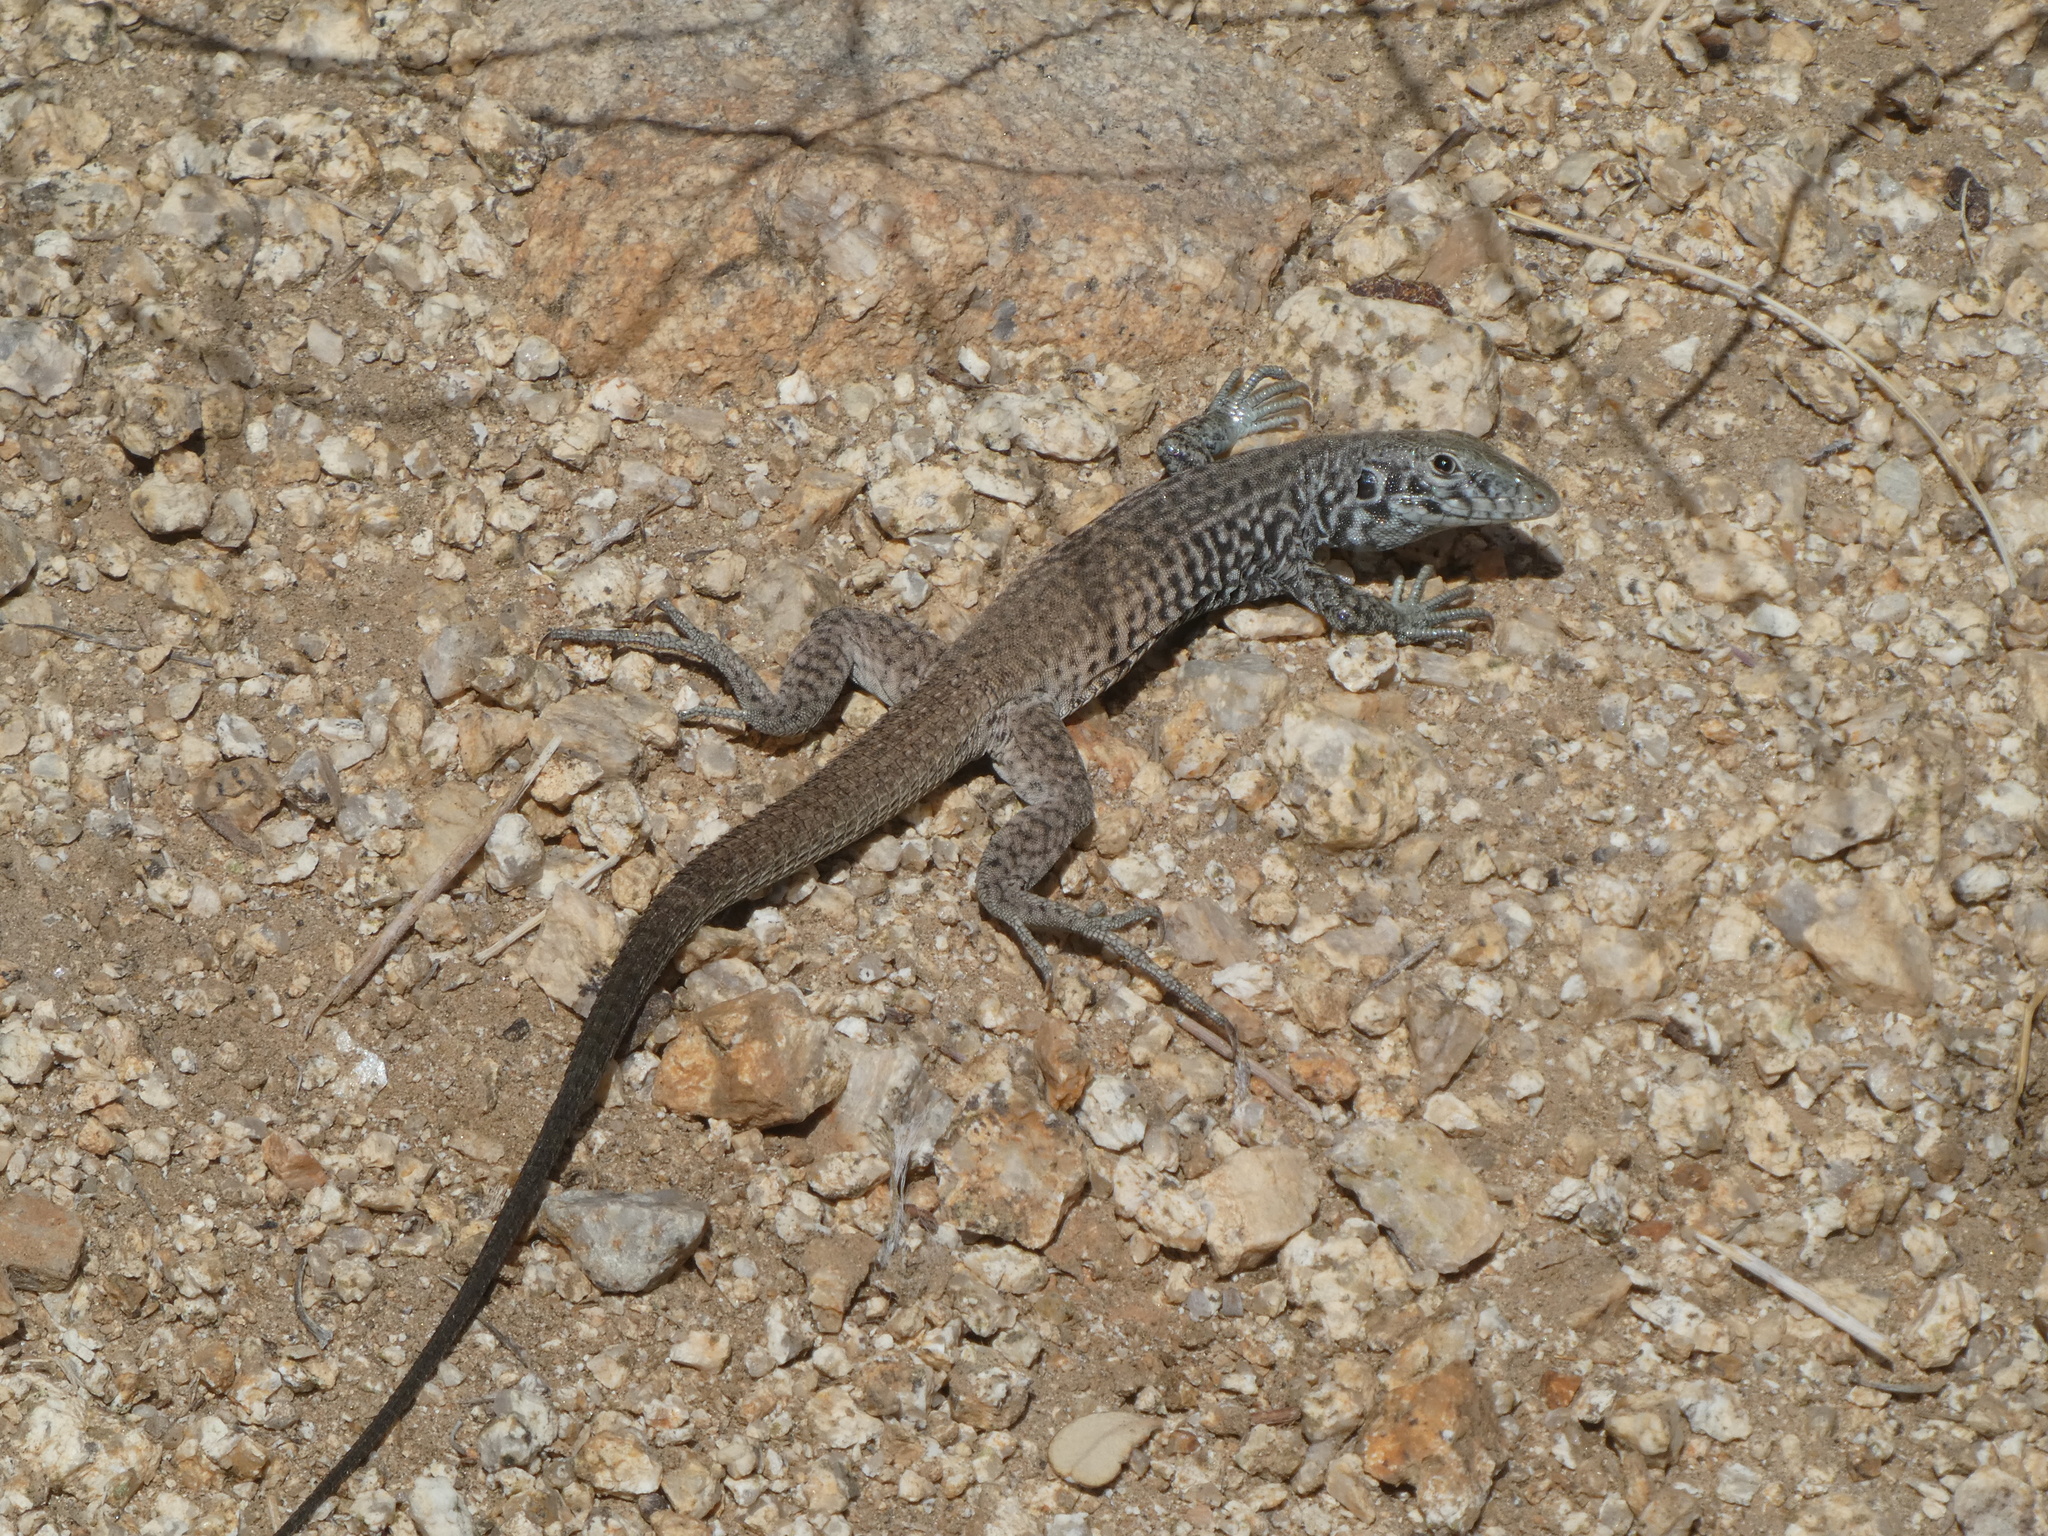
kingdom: Animalia
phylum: Chordata
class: Squamata
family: Teiidae
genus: Aspidoscelis
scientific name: Aspidoscelis tigris
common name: Tiger whiptail
